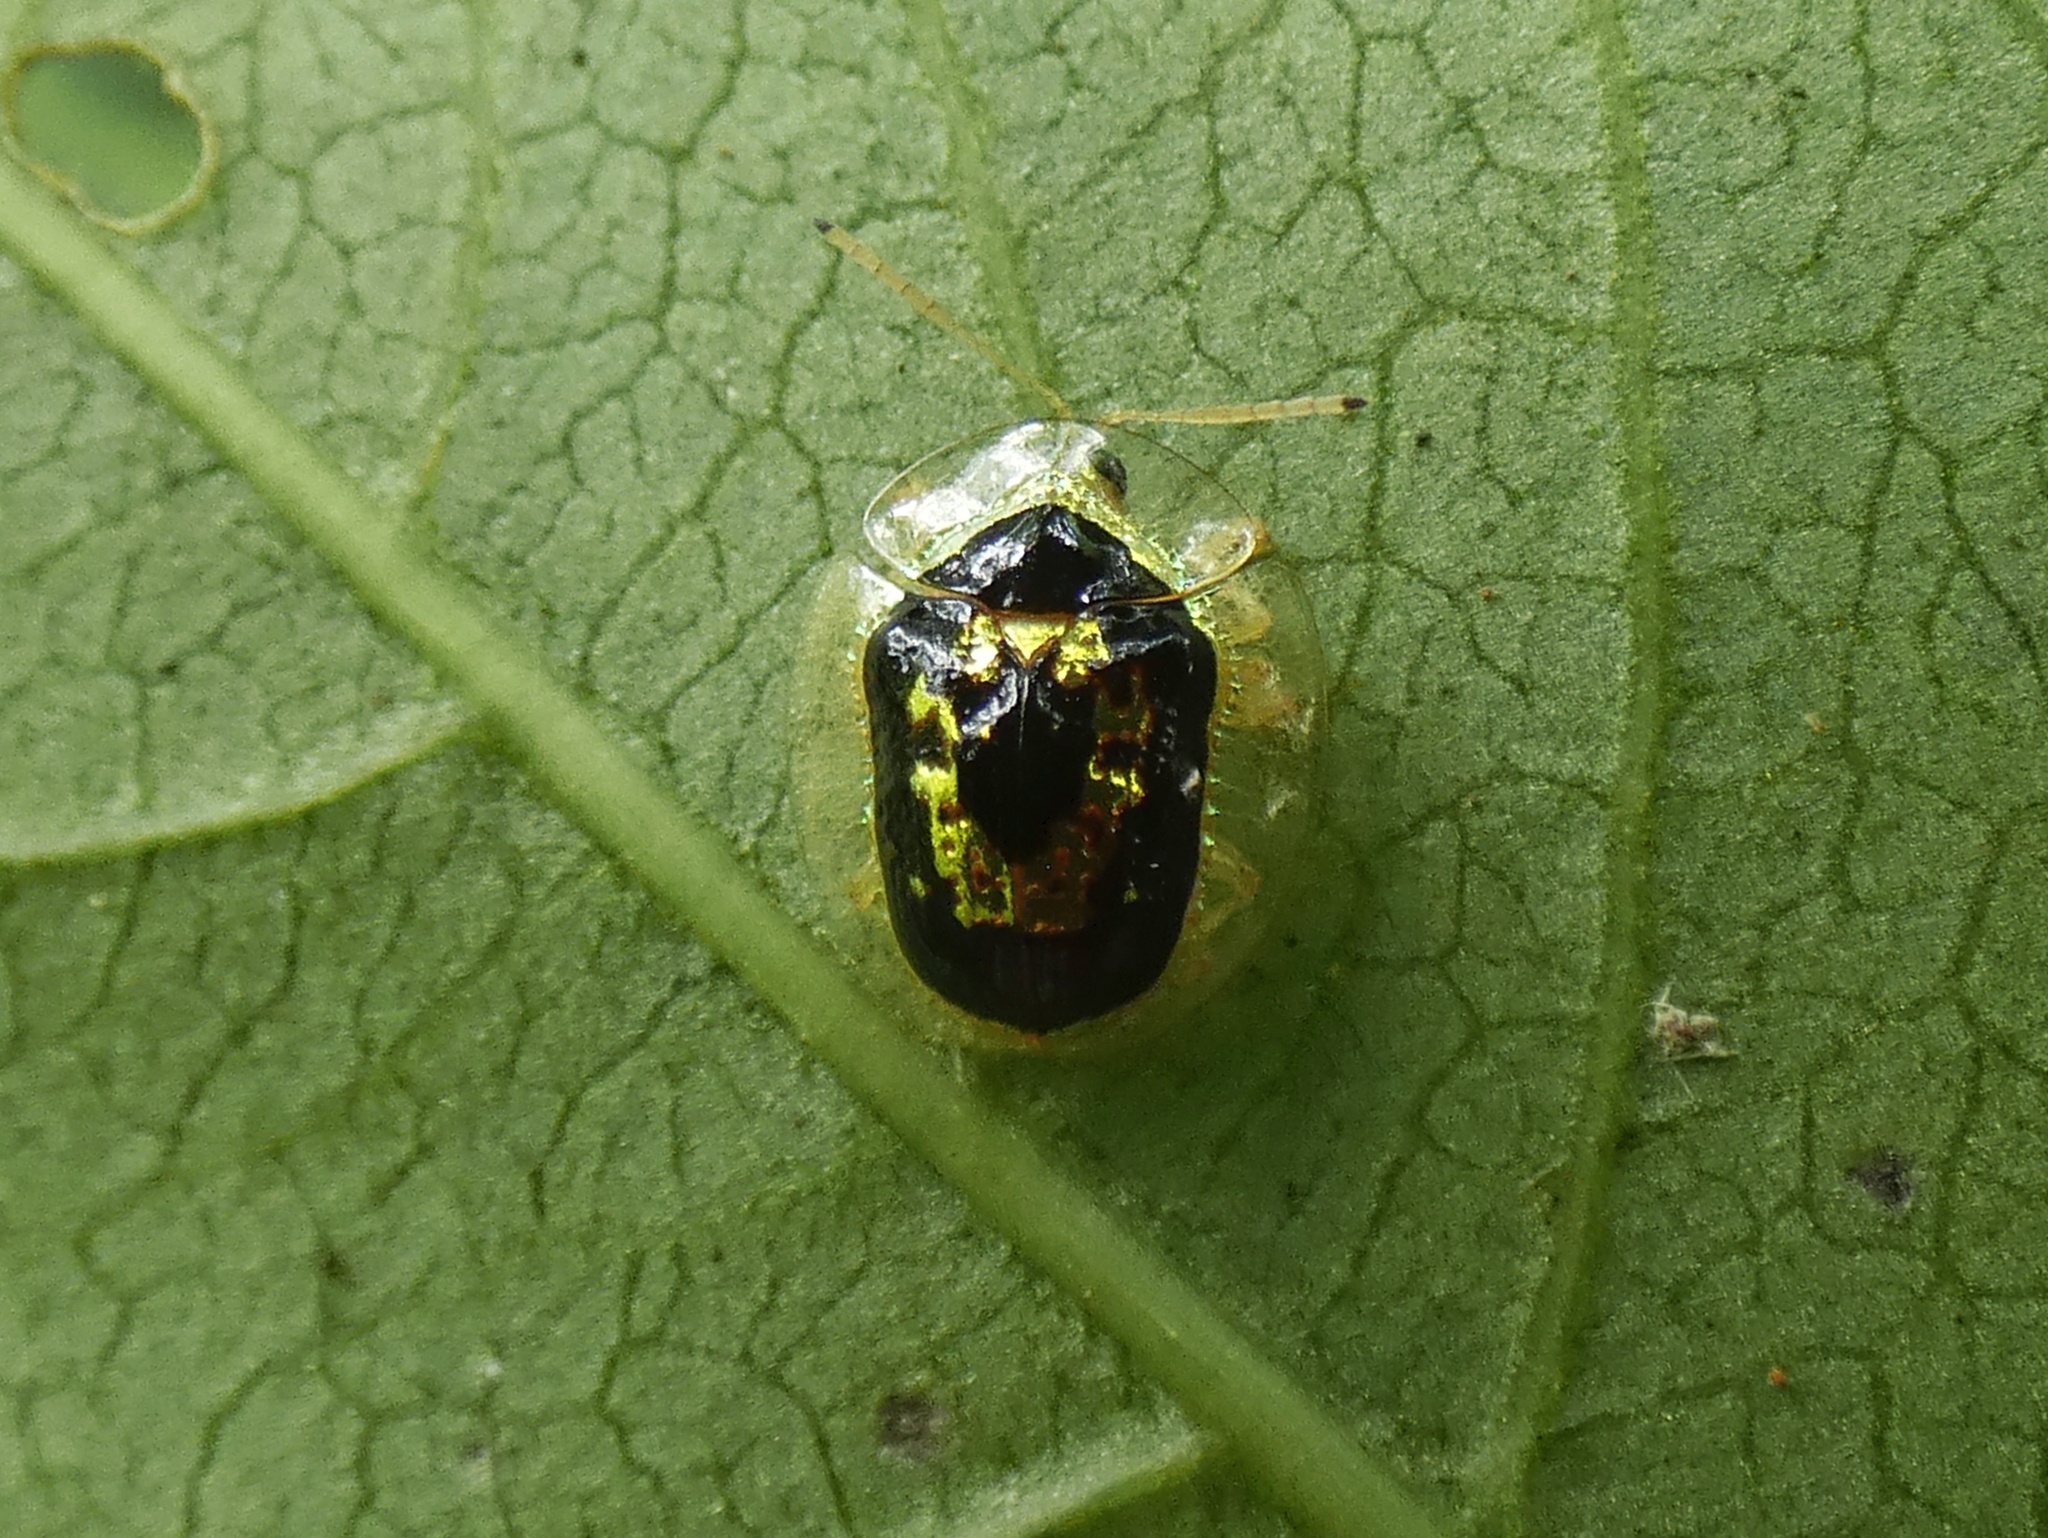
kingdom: Animalia
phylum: Arthropoda
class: Insecta
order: Coleoptera
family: Chrysomelidae
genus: Microctenochira
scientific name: Microctenochira panamensis
